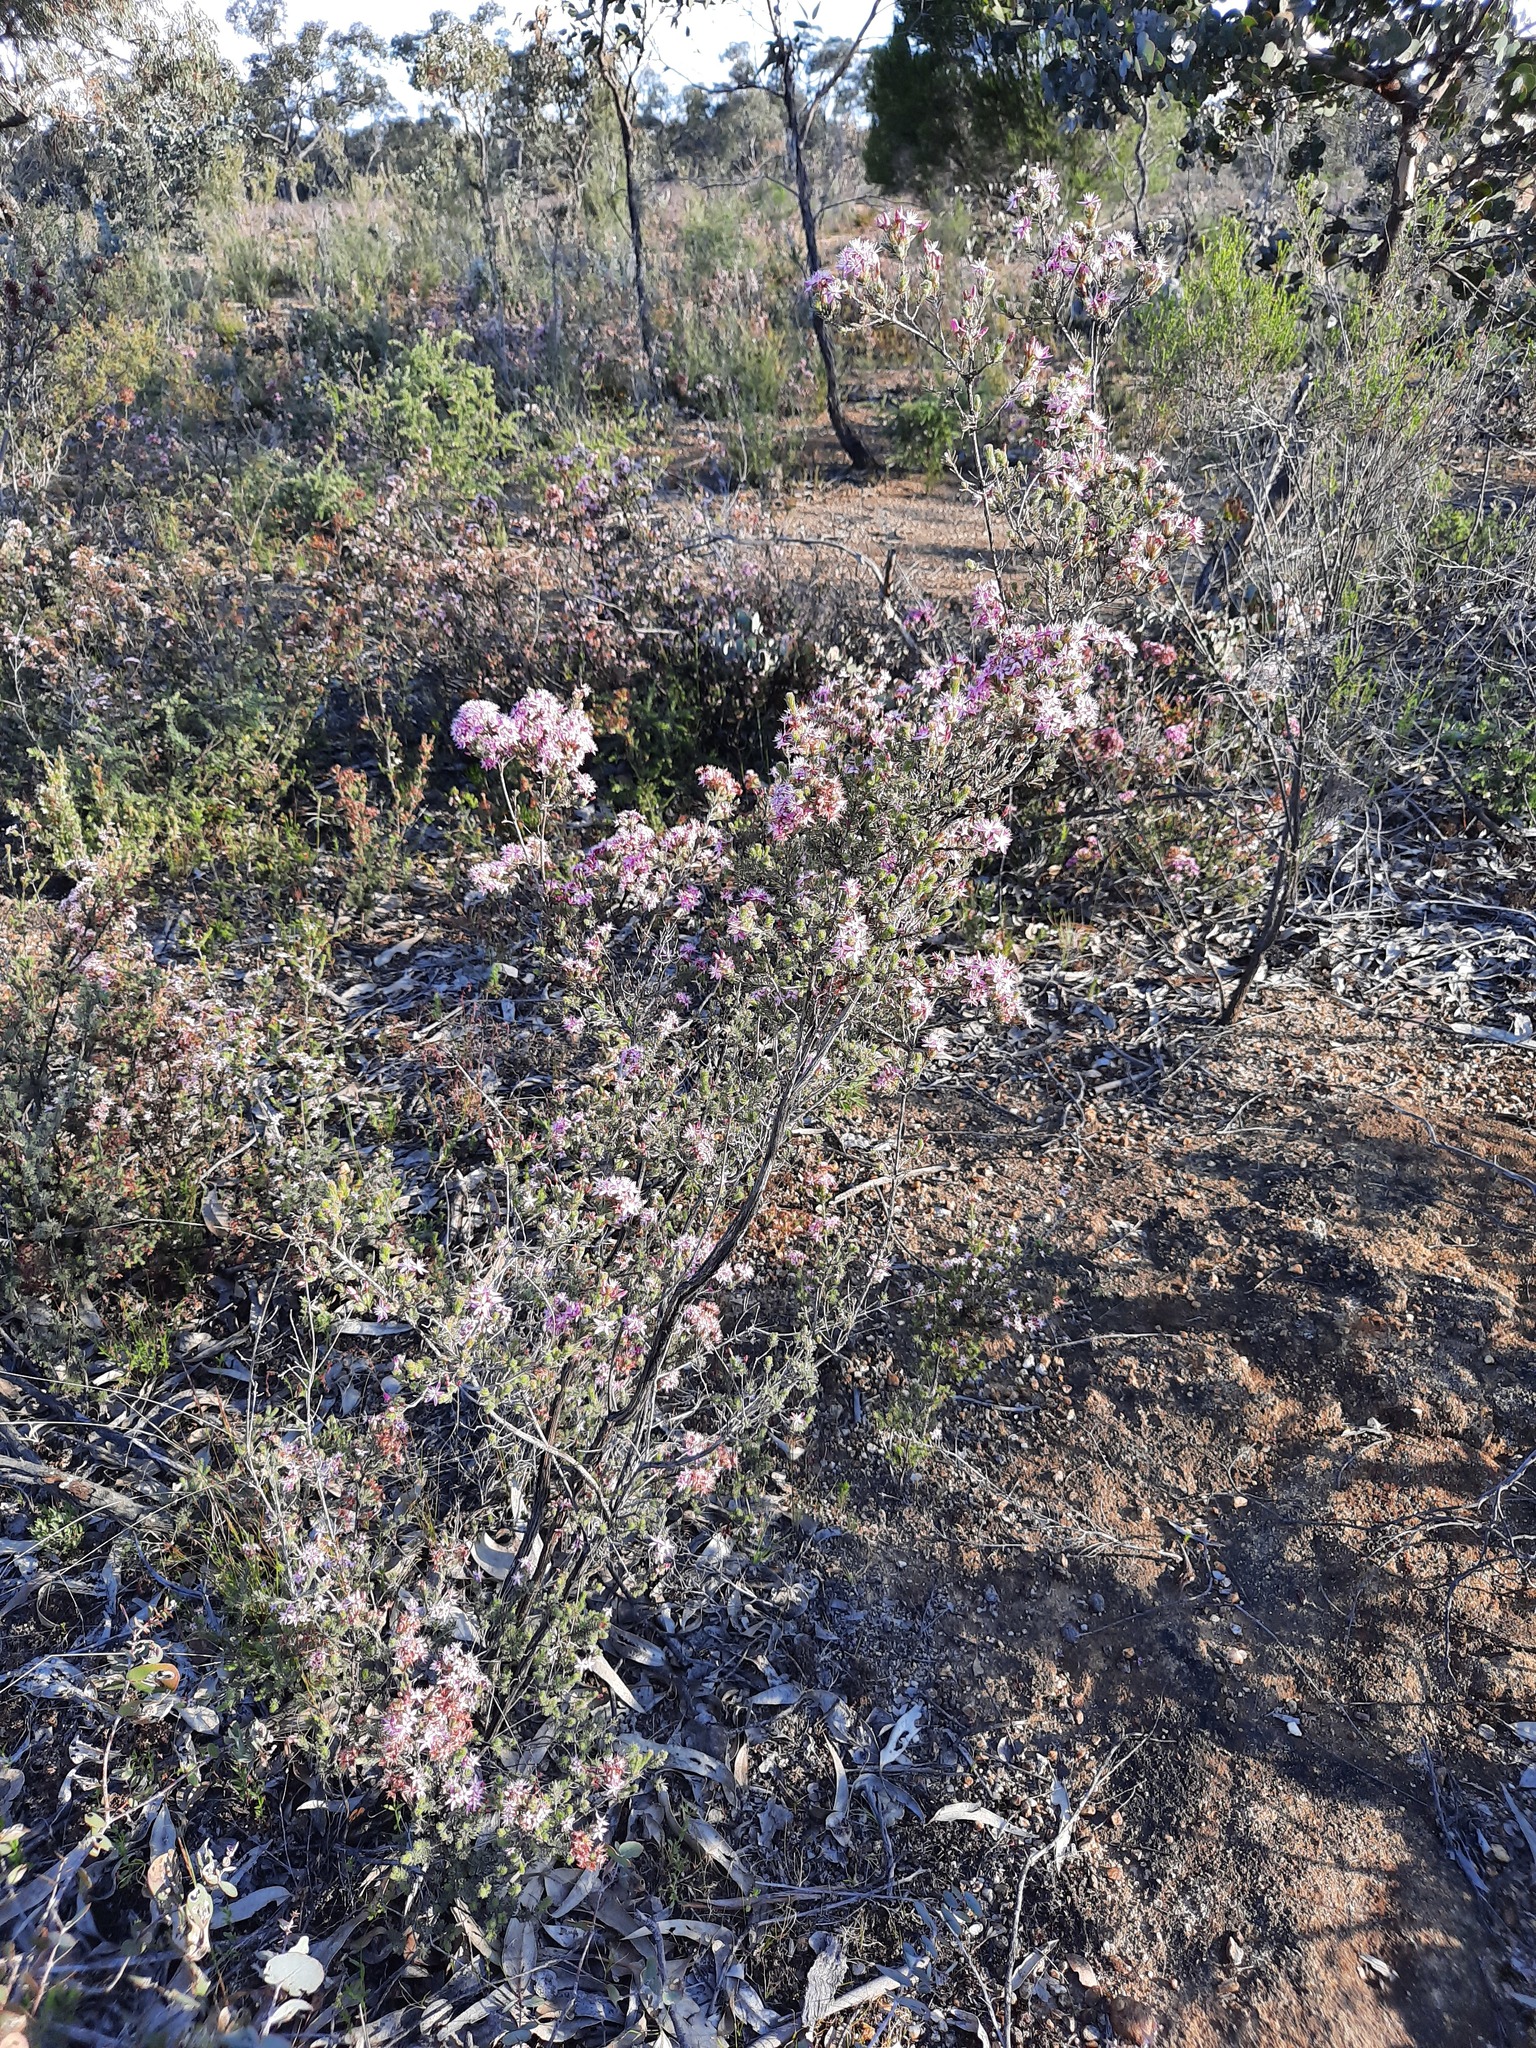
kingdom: Plantae
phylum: Tracheophyta
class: Magnoliopsida
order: Myrtales
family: Myrtaceae
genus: Calytrix
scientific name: Calytrix tetragona
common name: Common fringe myrtle
